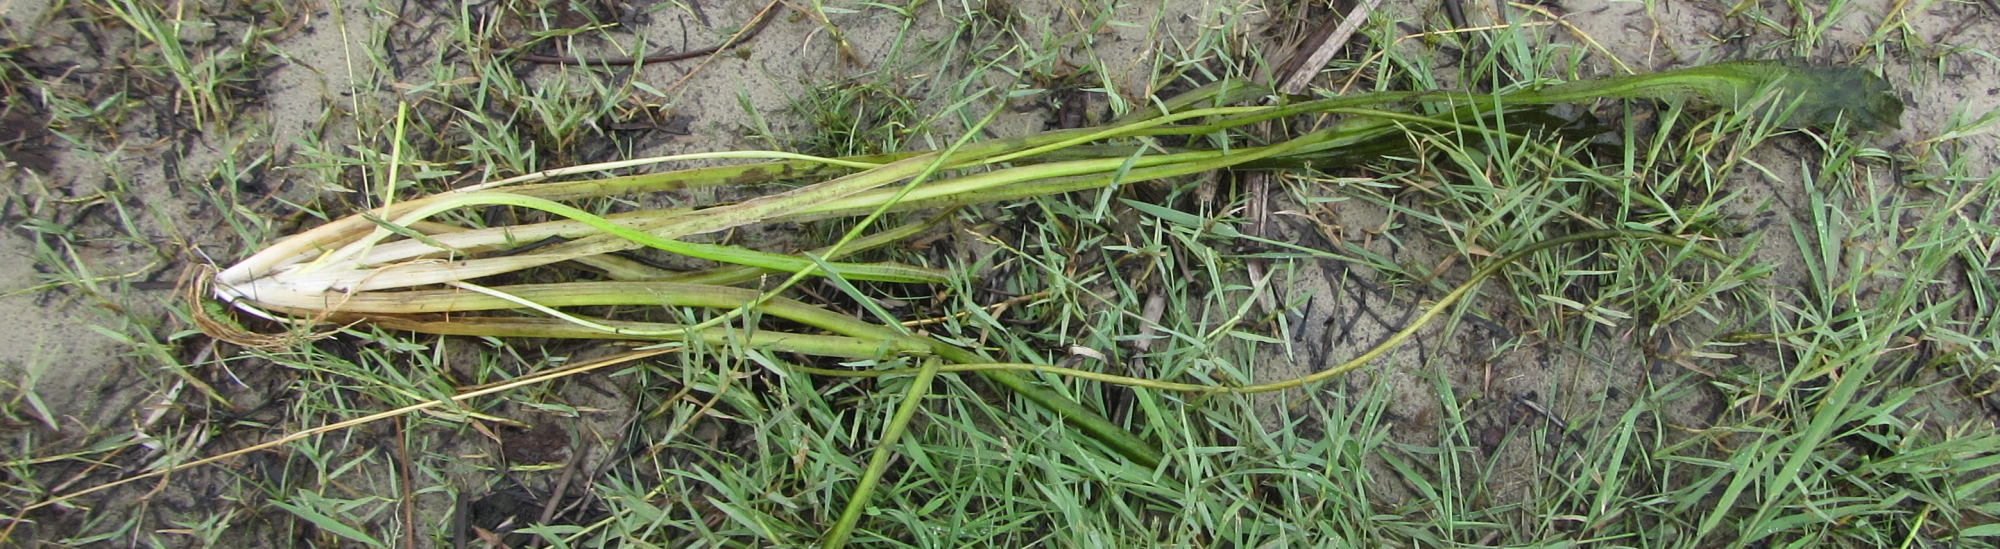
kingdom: Plantae
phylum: Tracheophyta
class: Liliopsida
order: Alismatales
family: Hydrocharitaceae
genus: Ottelia
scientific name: Ottelia ulvifolia
